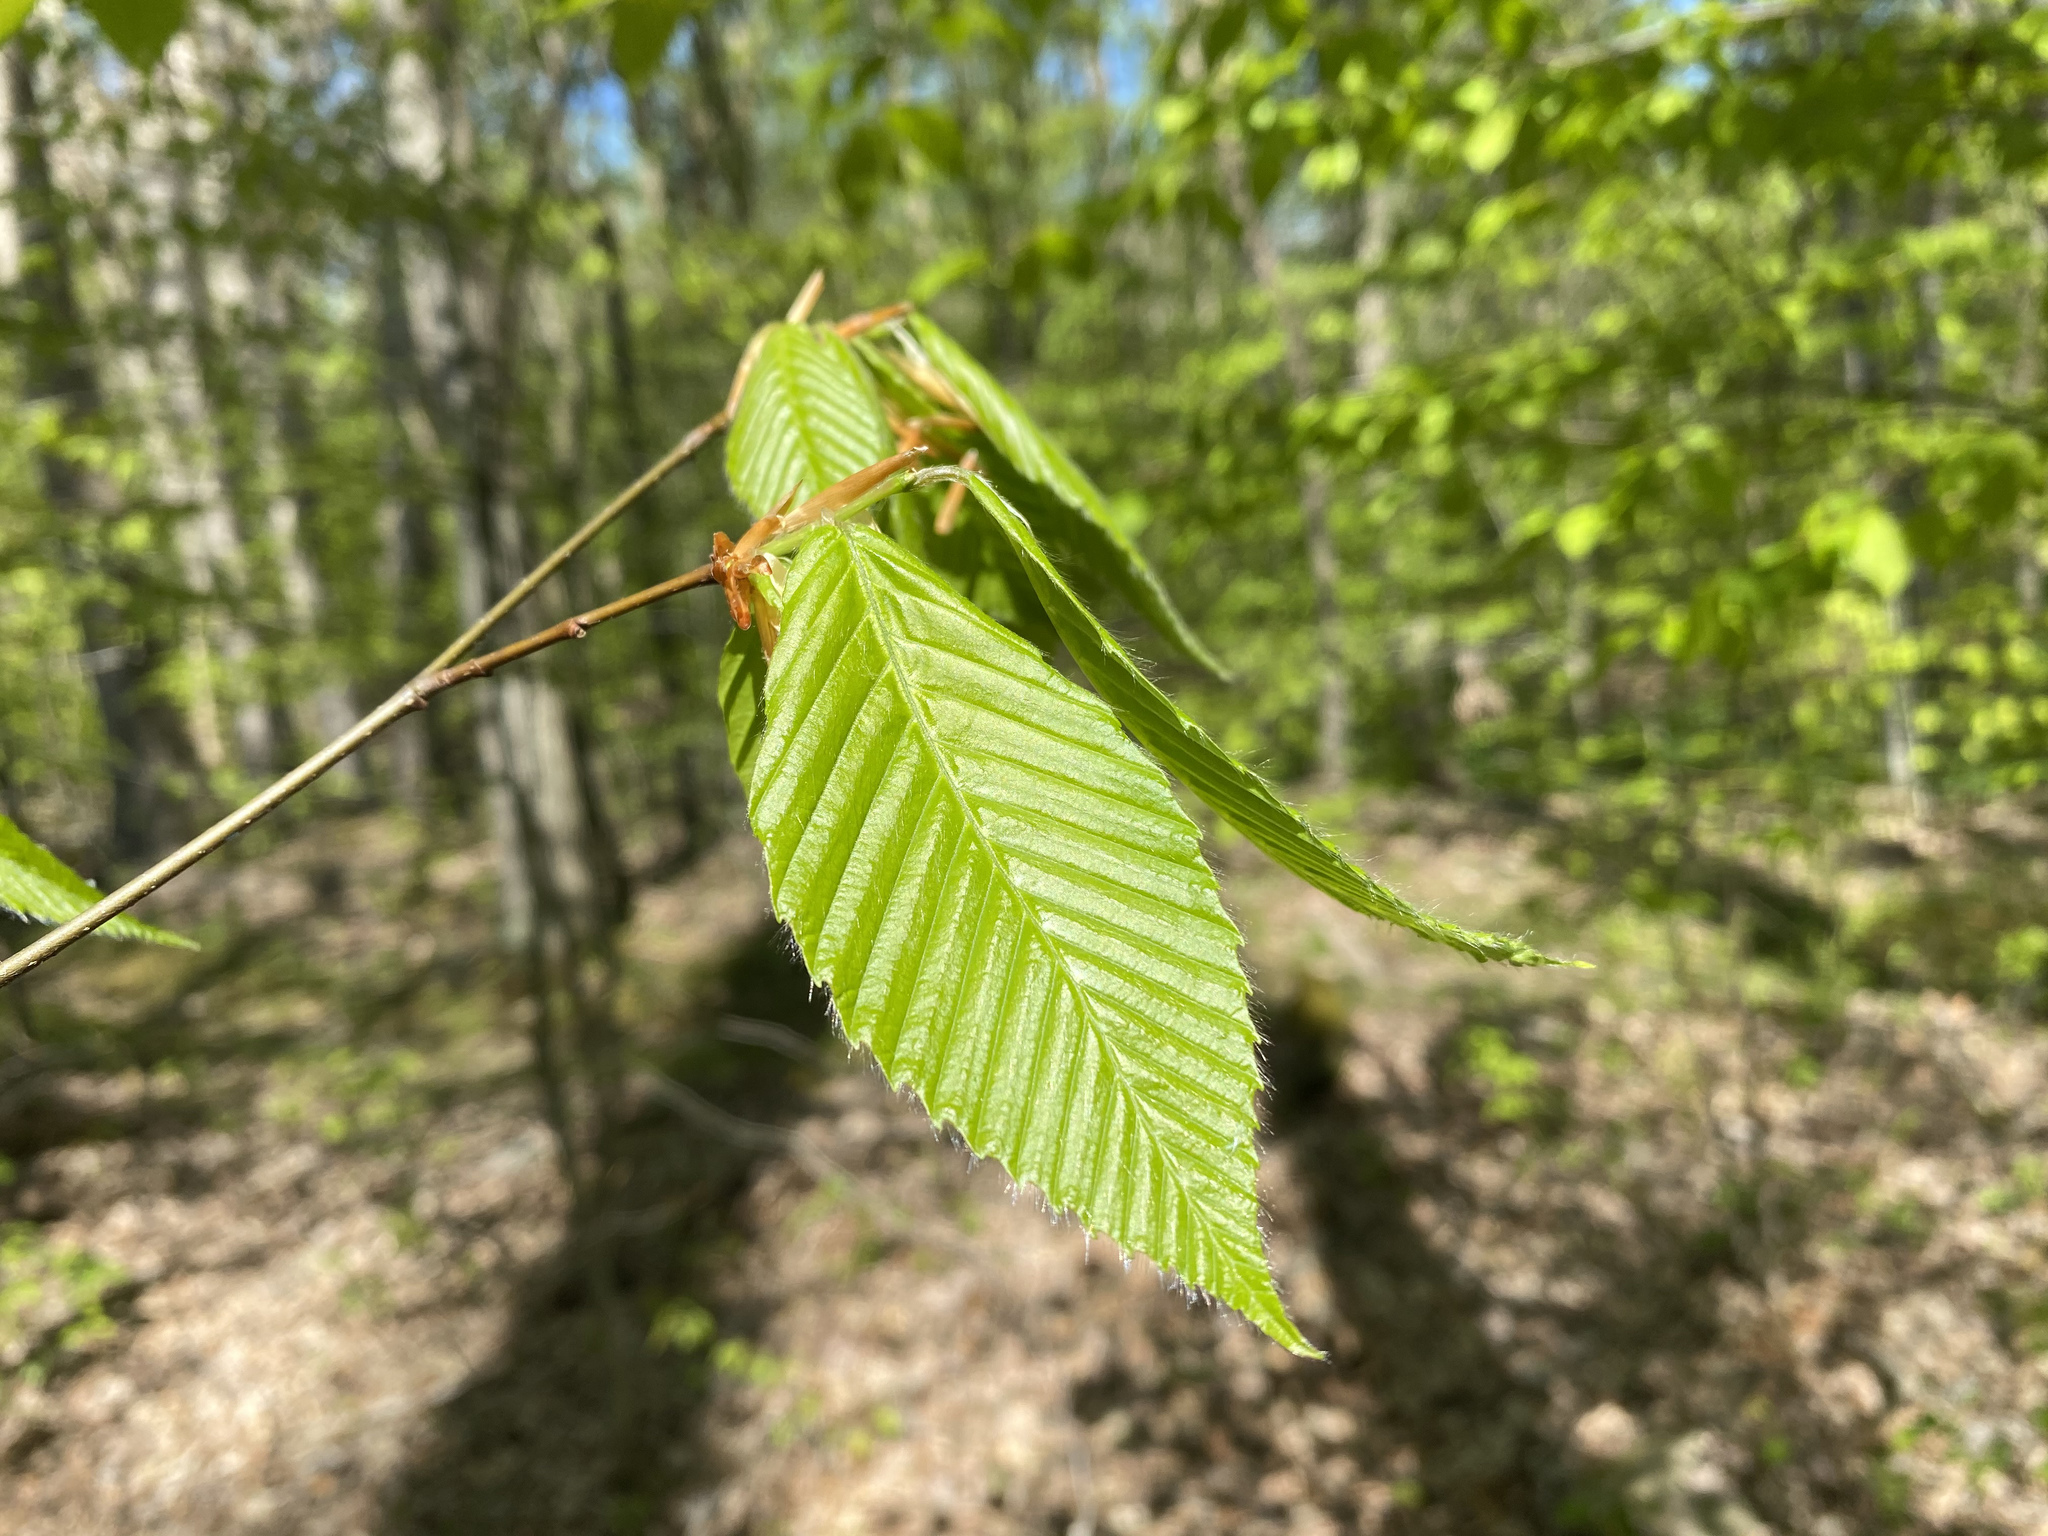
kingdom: Plantae
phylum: Tracheophyta
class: Magnoliopsida
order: Fagales
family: Fagaceae
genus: Fagus
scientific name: Fagus grandifolia
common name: American beech
